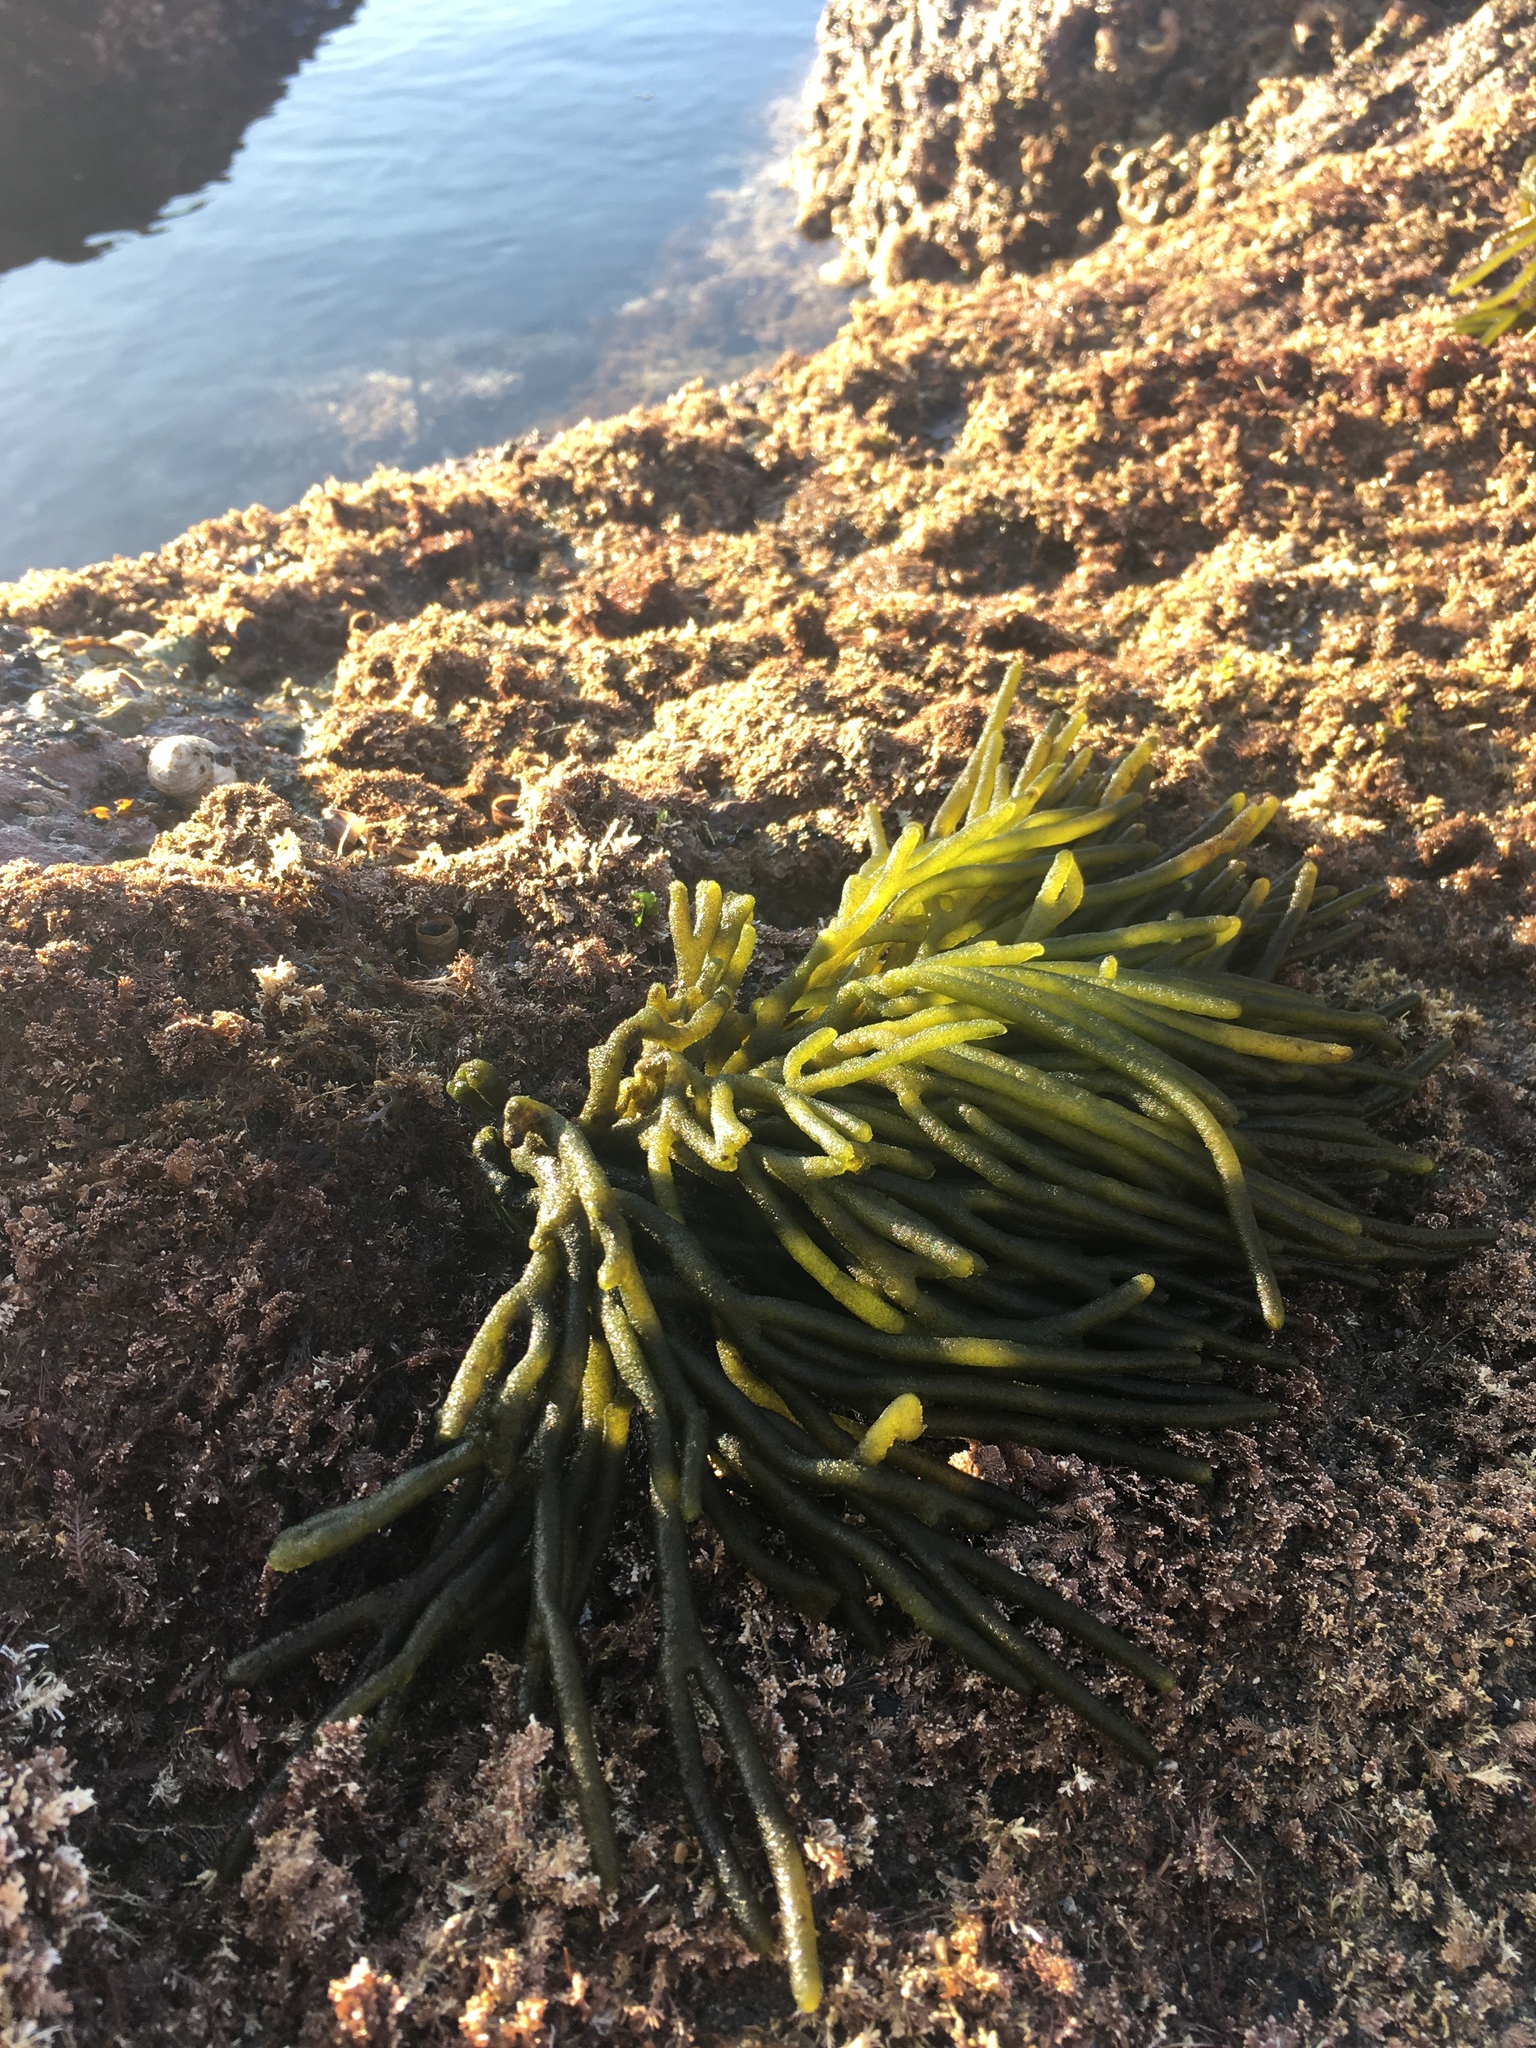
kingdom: Plantae
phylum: Chlorophyta
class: Ulvophyceae
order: Bryopsidales
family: Codiaceae
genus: Codium
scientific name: Codium fragile
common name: Dead man's fingers
